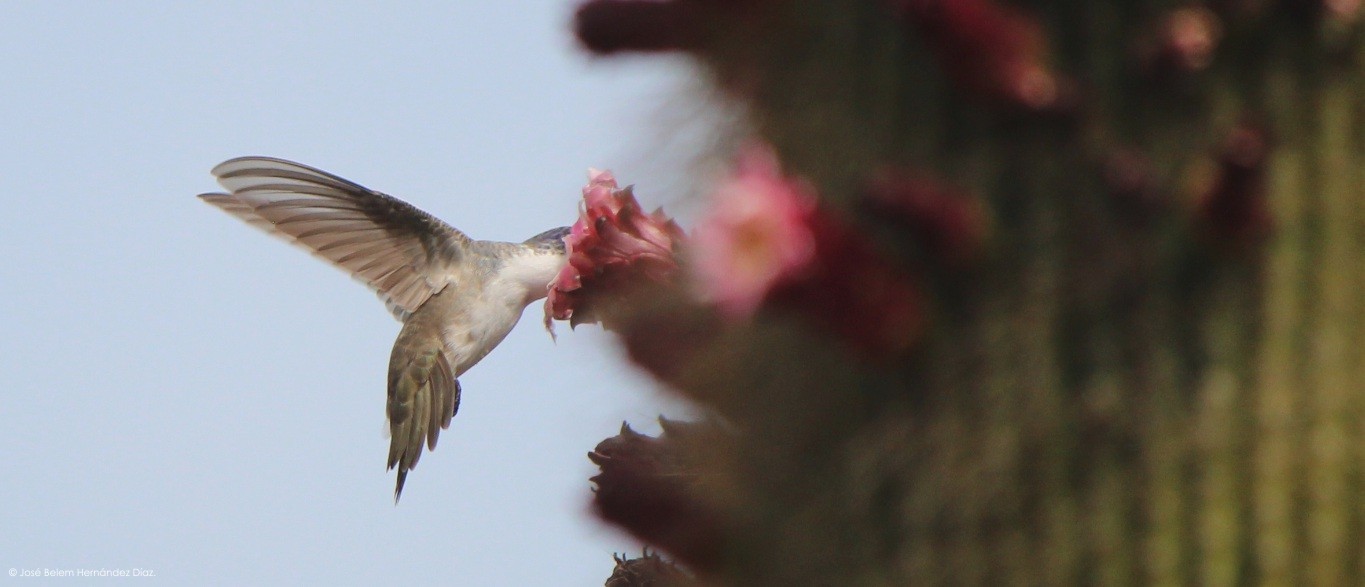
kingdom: Animalia
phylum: Chordata
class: Aves
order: Apodiformes
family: Trochilidae
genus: Leucolia
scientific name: Leucolia violiceps
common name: Violet-crowned hummingbird
